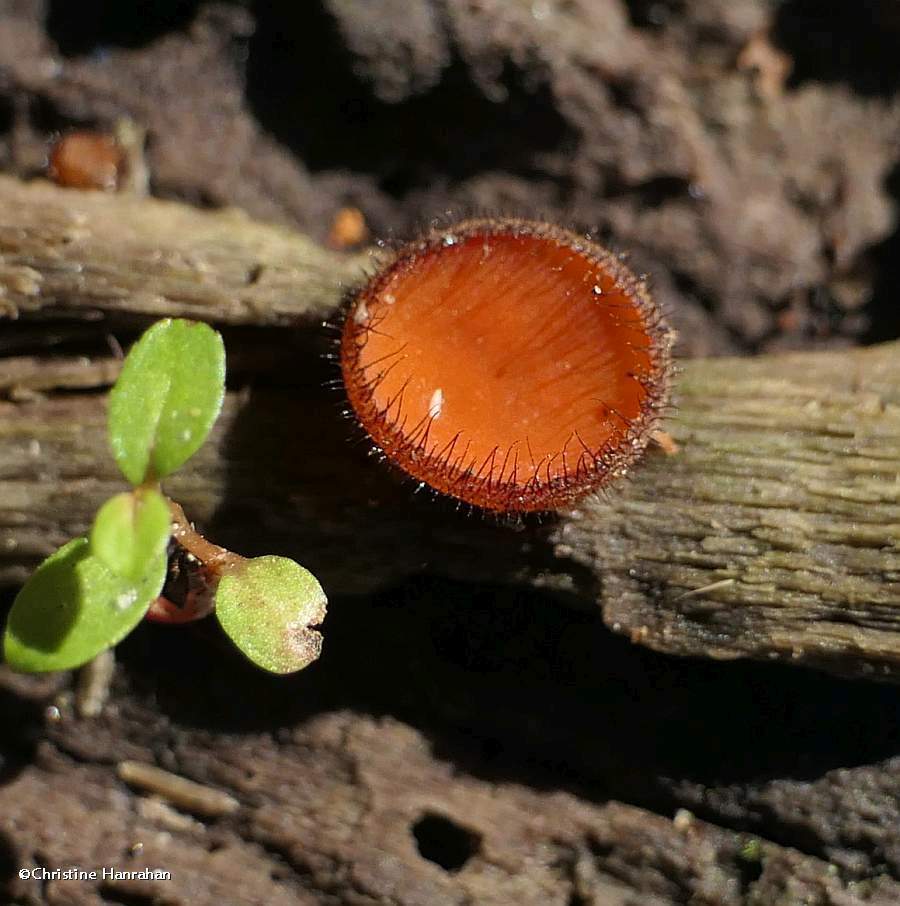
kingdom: Fungi
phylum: Ascomycota
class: Pezizomycetes
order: Pezizales
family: Pyronemataceae
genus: Scutellinia
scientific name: Scutellinia
